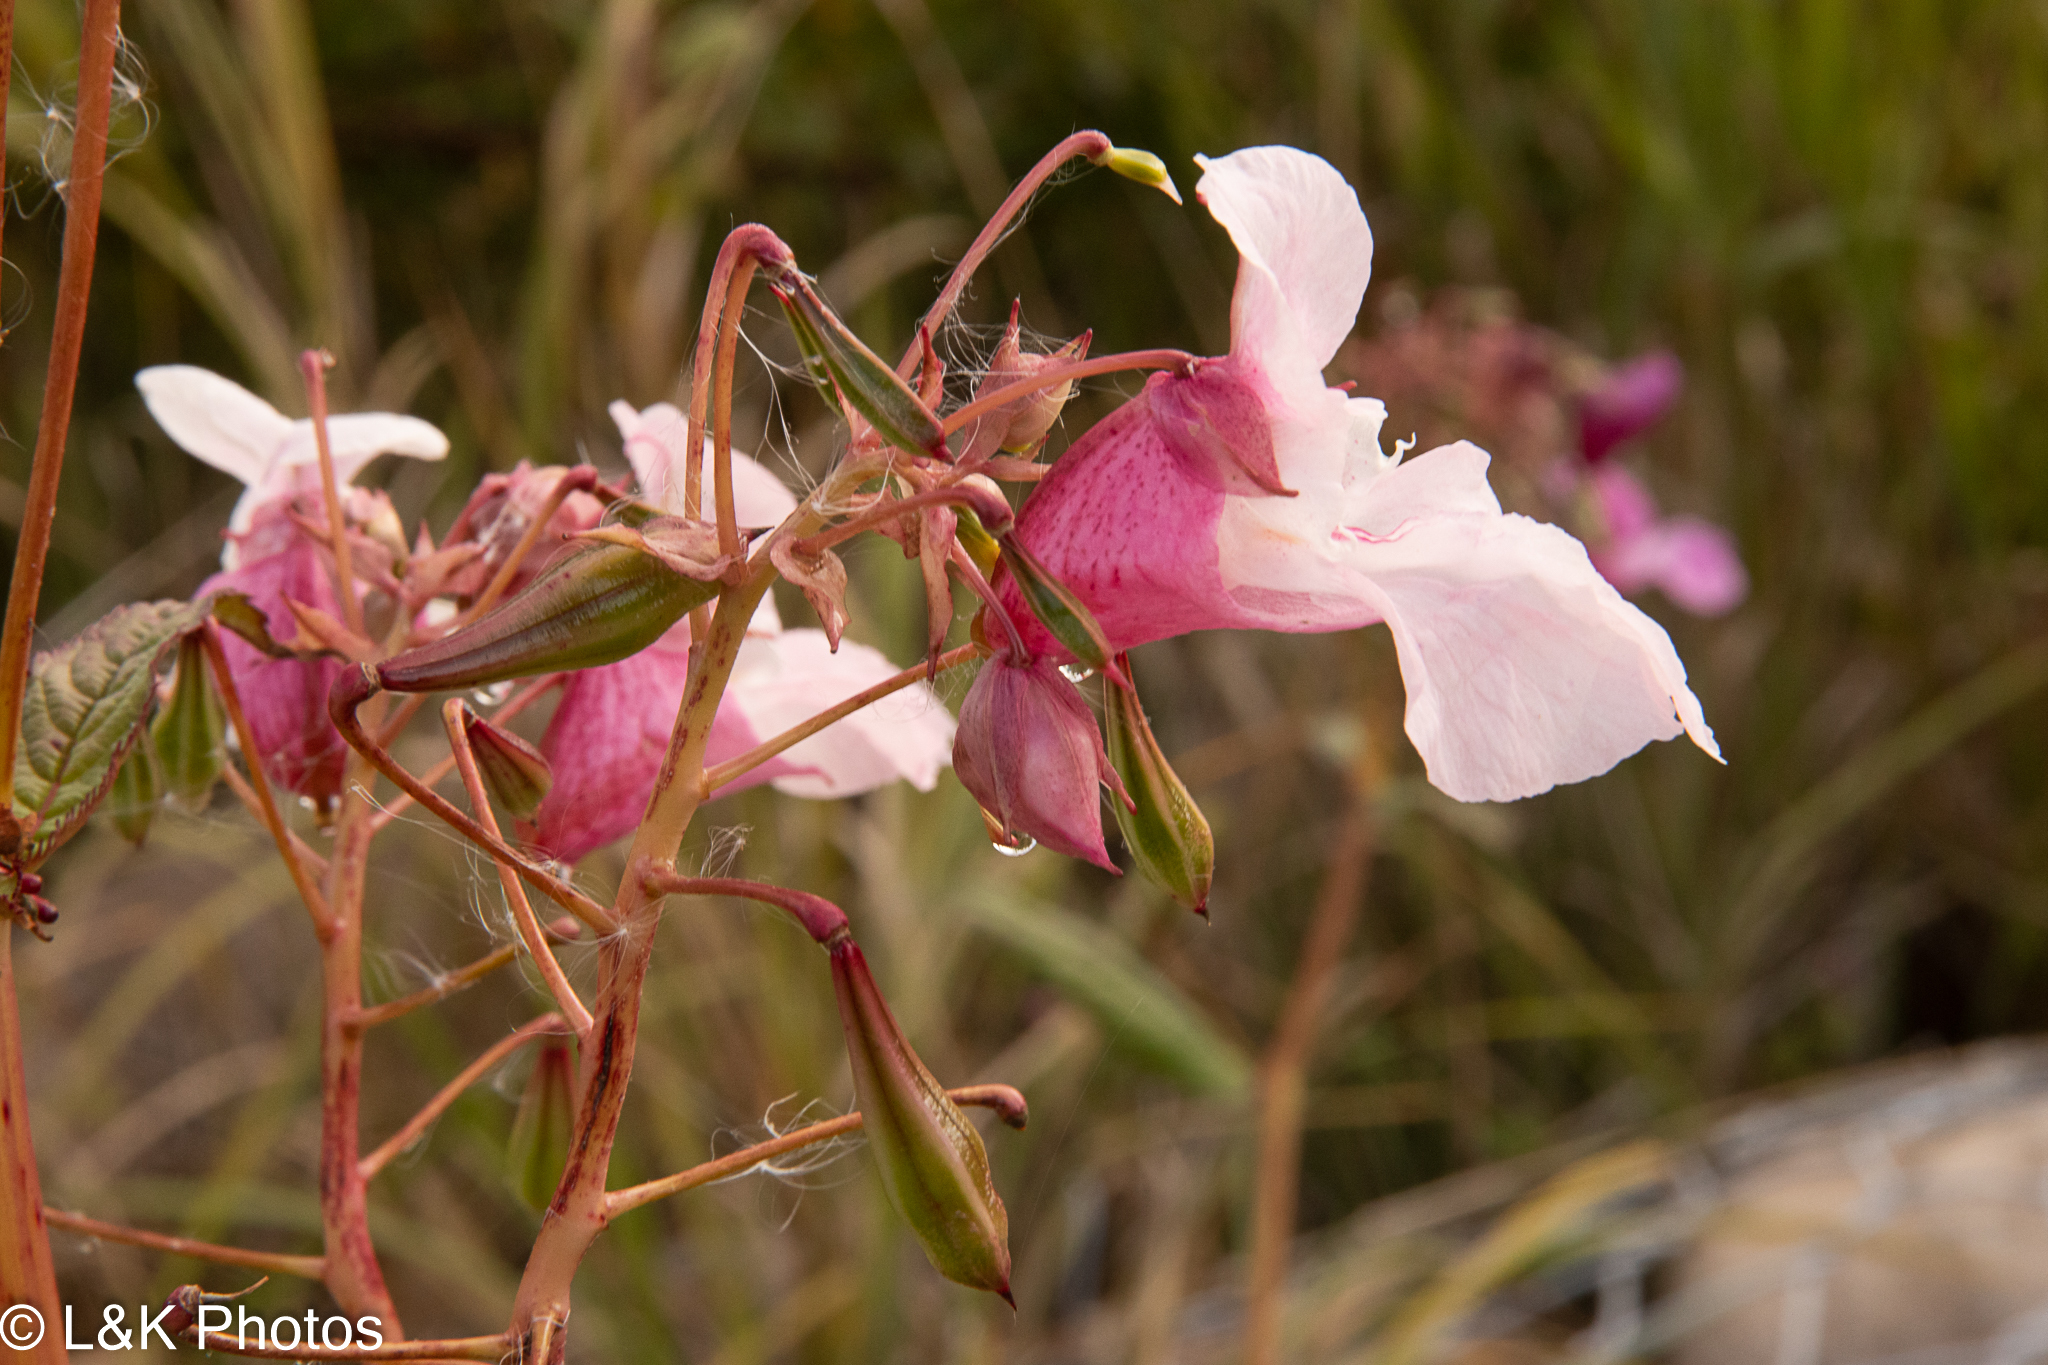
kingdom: Plantae
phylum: Tracheophyta
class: Magnoliopsida
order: Ericales
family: Balsaminaceae
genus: Impatiens
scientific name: Impatiens glandulifera
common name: Himalayan balsam
